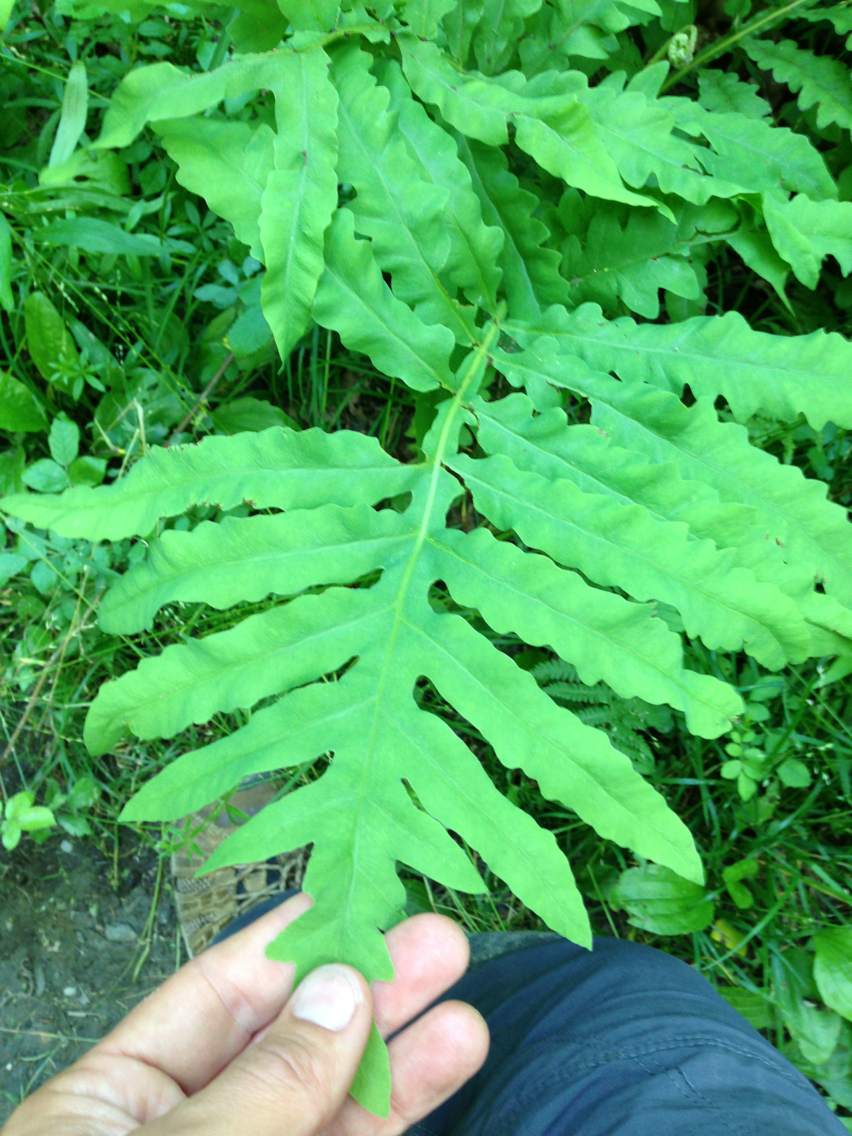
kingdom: Plantae
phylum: Tracheophyta
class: Polypodiopsida
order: Polypodiales
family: Onocleaceae
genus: Onoclea
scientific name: Onoclea sensibilis
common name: Sensitive fern
